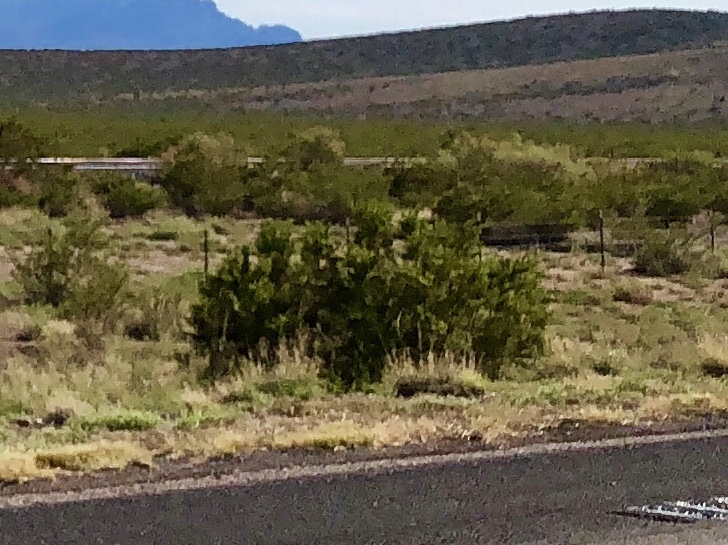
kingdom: Plantae
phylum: Tracheophyta
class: Magnoliopsida
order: Zygophyllales
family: Zygophyllaceae
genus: Larrea
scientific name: Larrea tridentata
